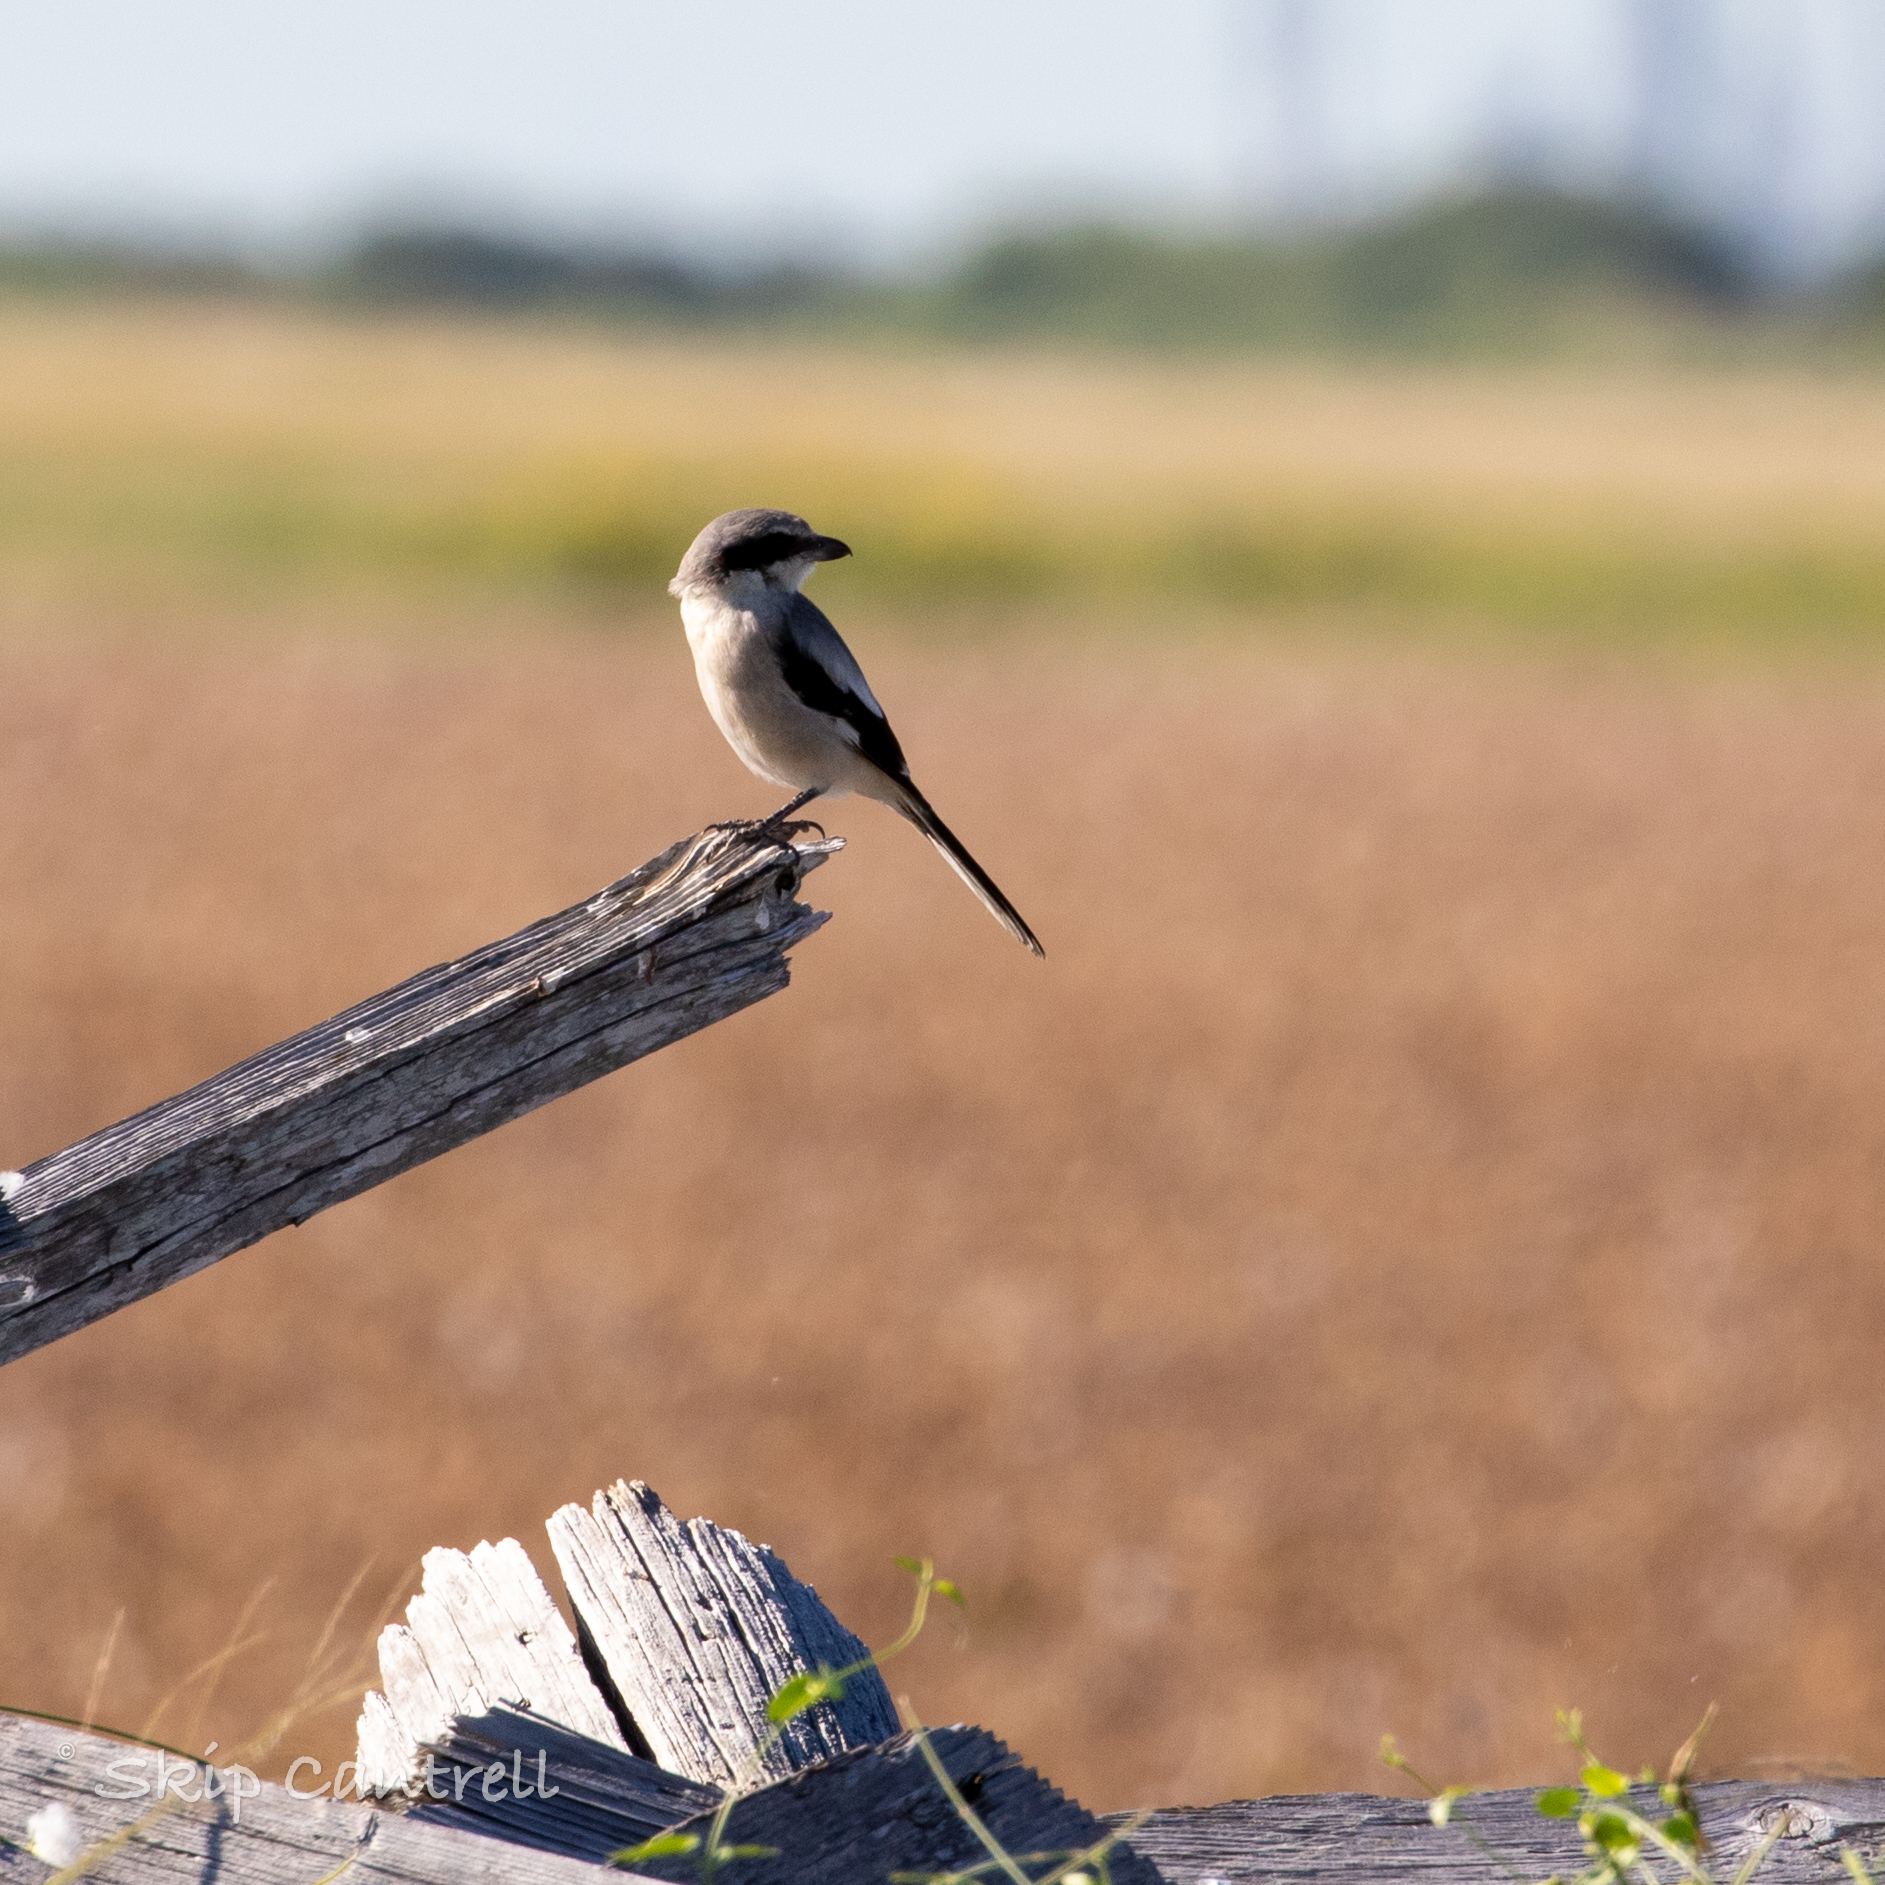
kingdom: Animalia
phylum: Chordata
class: Aves
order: Passeriformes
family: Laniidae
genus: Lanius
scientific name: Lanius ludovicianus
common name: Loggerhead shrike
